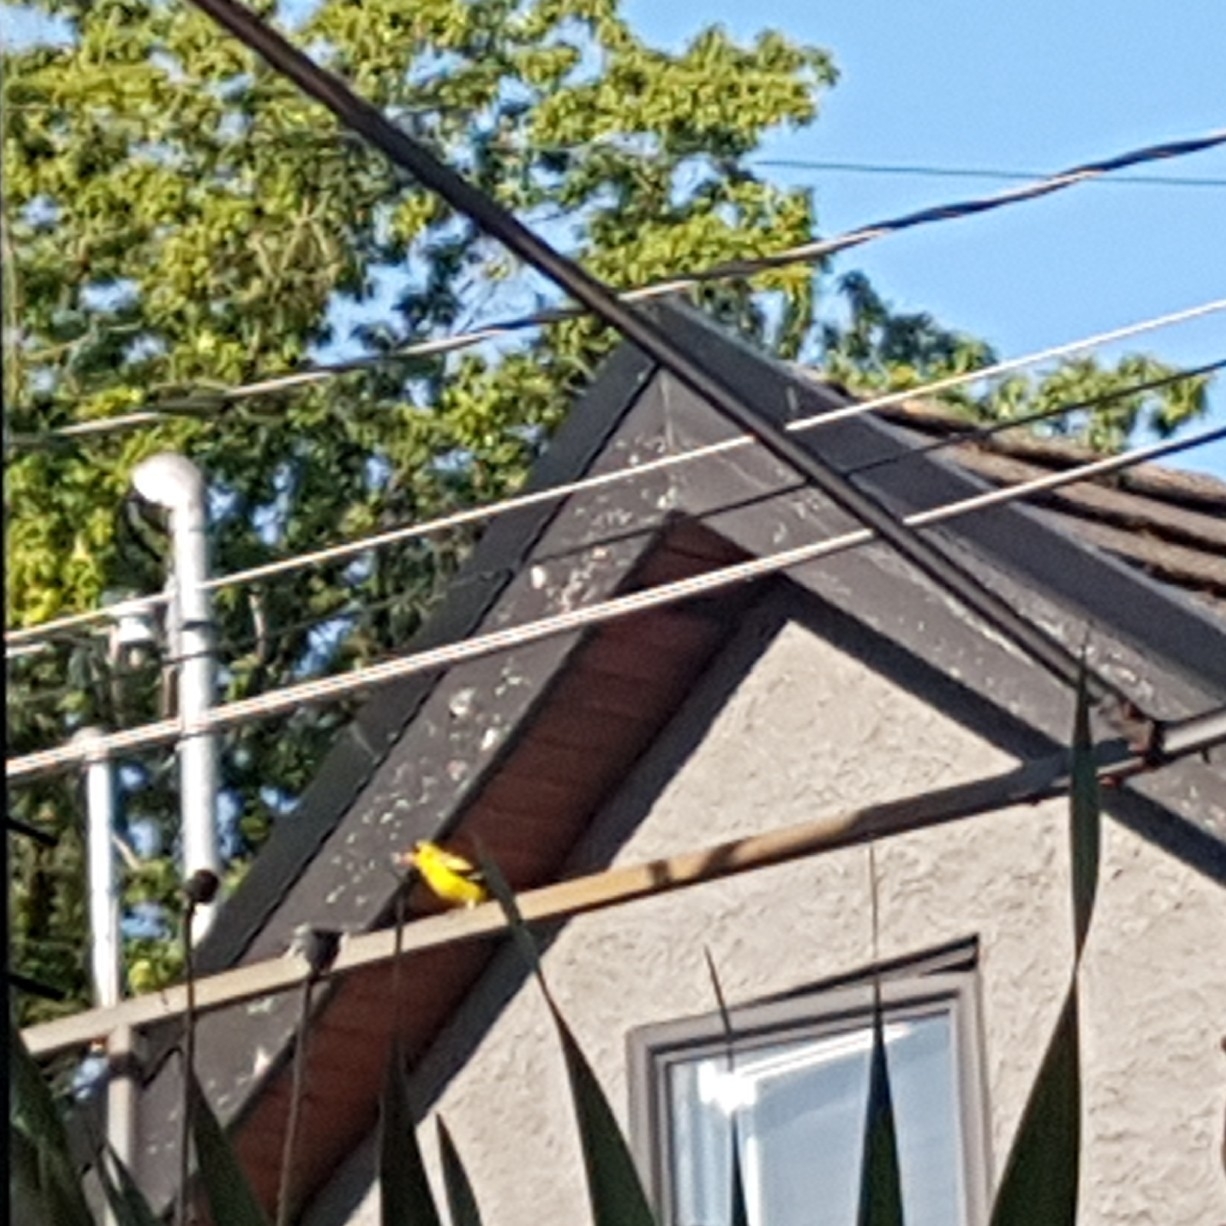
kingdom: Animalia
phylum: Chordata
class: Aves
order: Passeriformes
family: Fringillidae
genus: Spinus
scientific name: Spinus tristis
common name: American goldfinch
